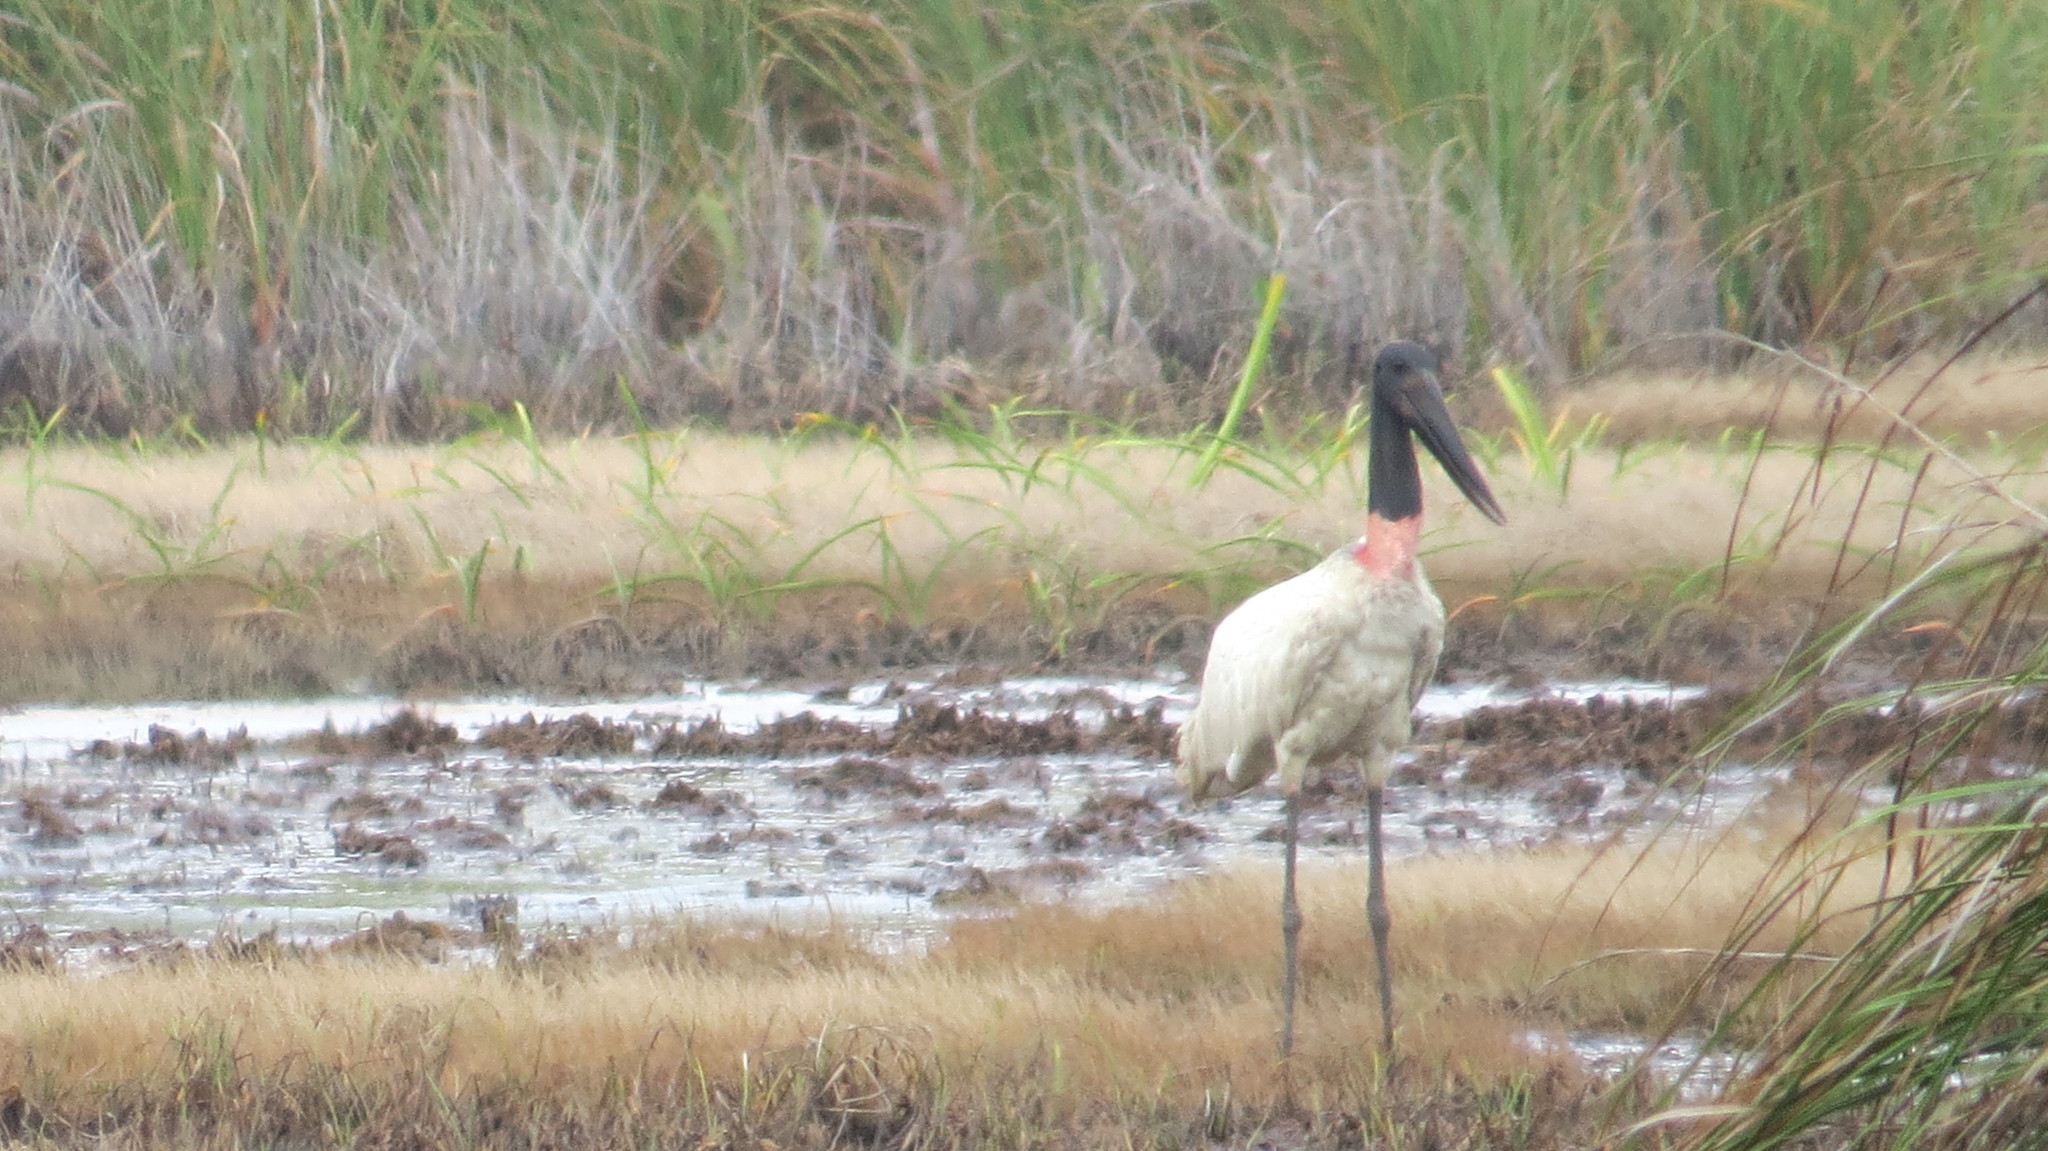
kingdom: Animalia
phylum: Chordata
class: Aves
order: Ciconiiformes
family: Ciconiidae
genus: Jabiru
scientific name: Jabiru mycteria
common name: Jabiru
